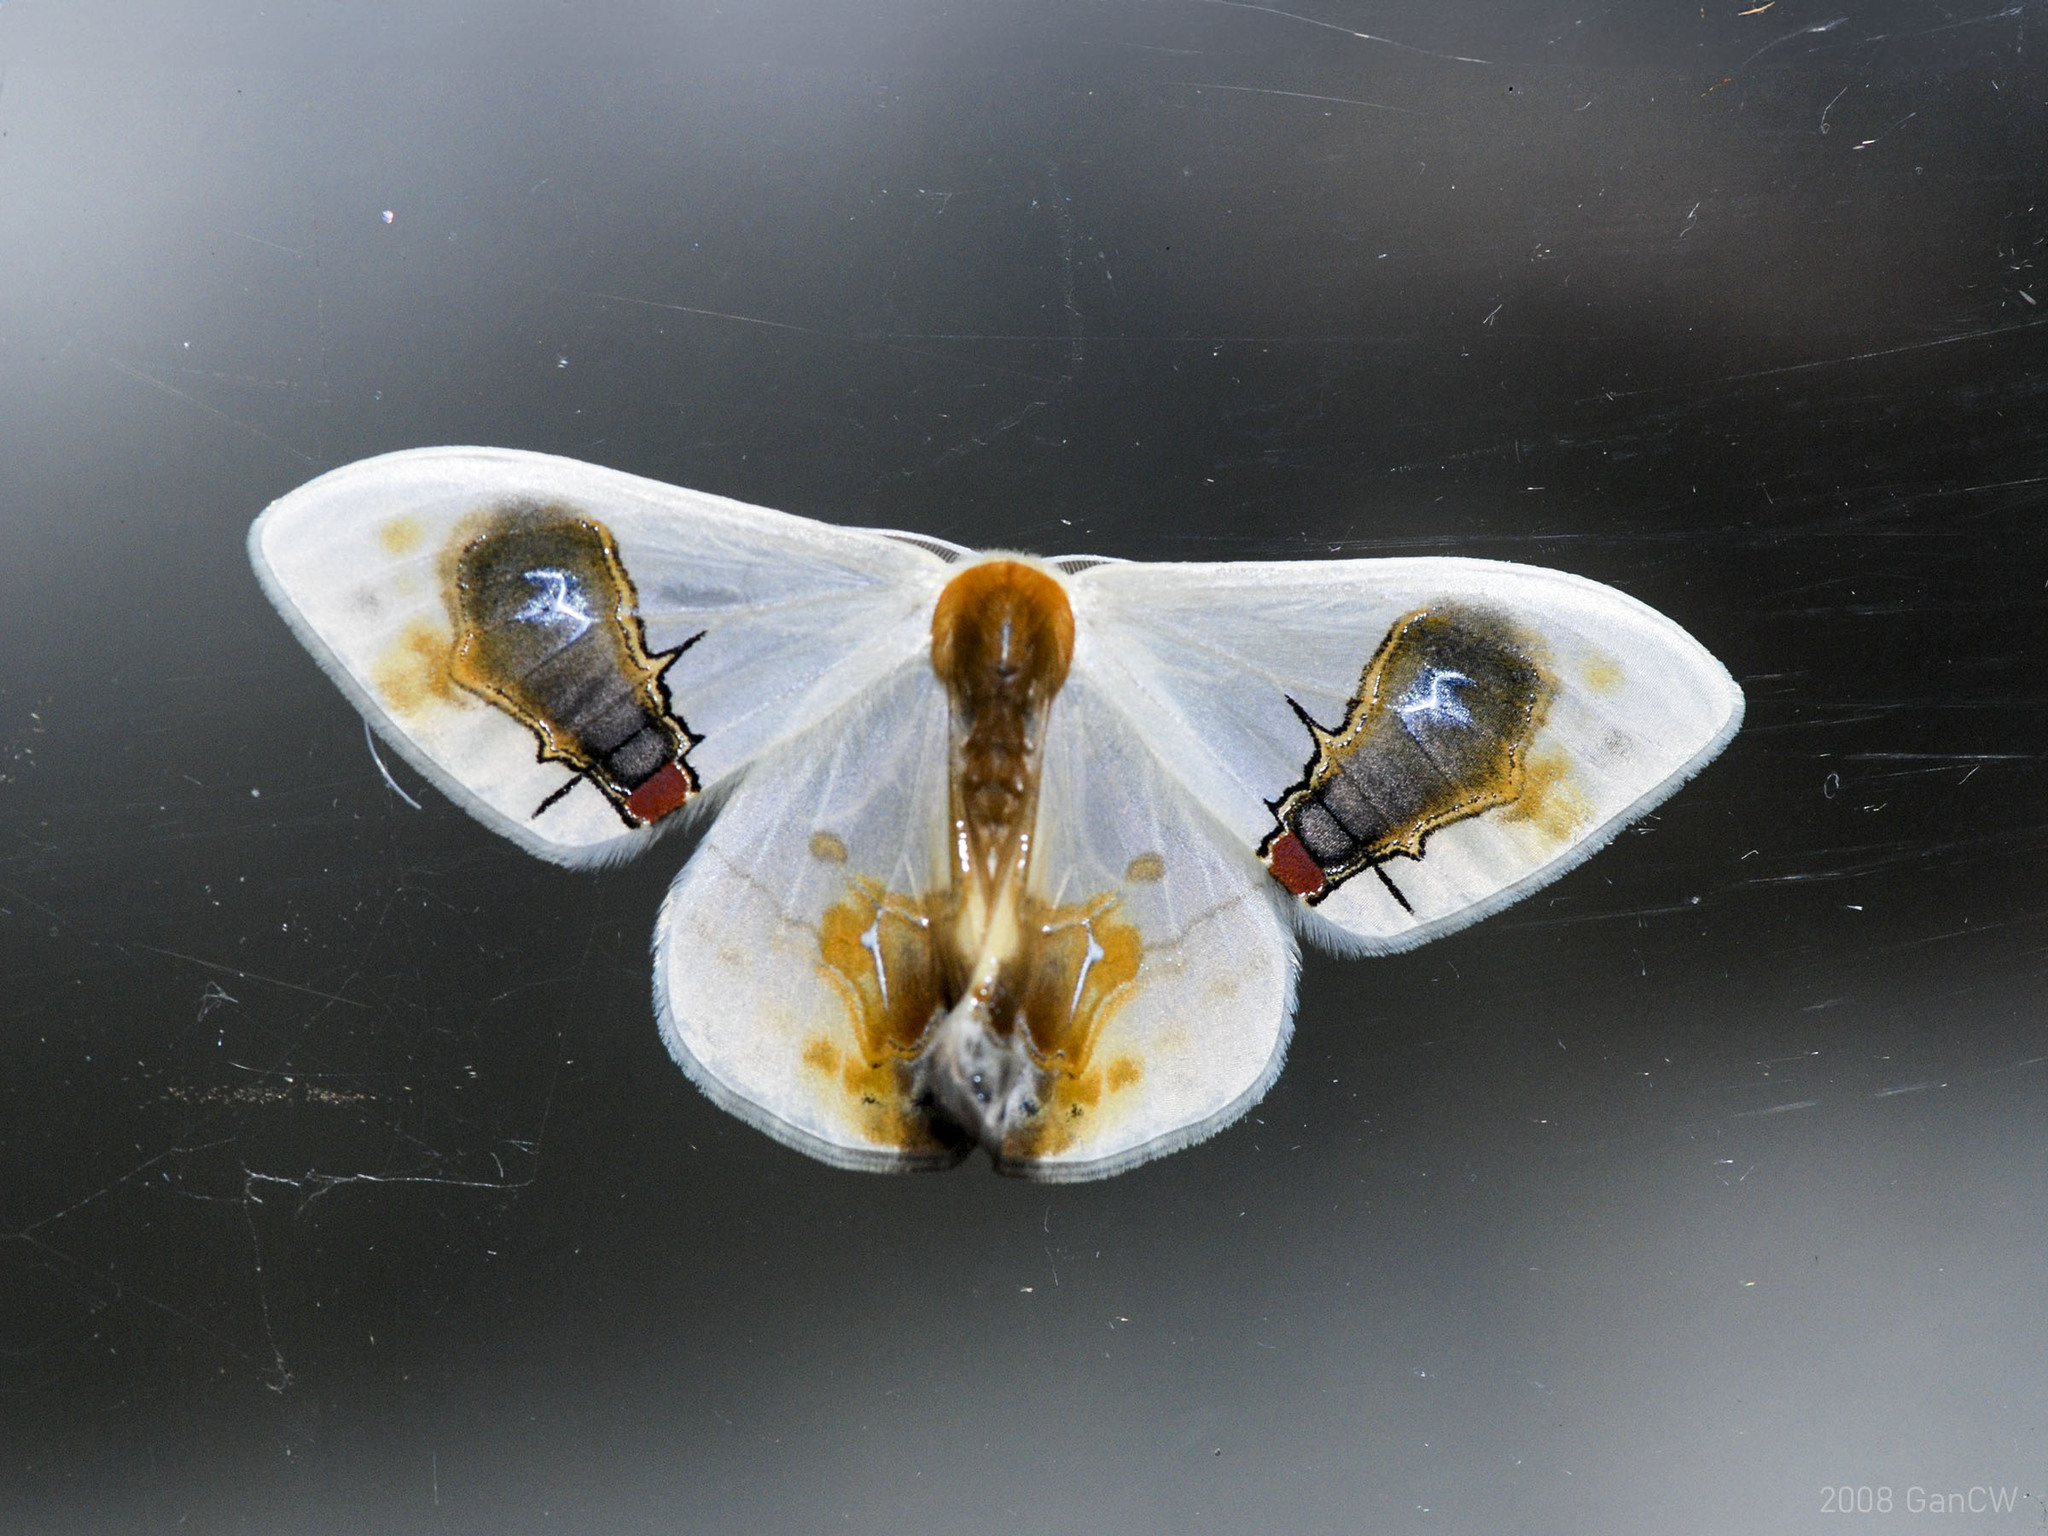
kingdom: Animalia
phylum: Arthropoda
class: Insecta
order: Lepidoptera
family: Drepanidae
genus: Macrocilix
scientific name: Macrocilix maia
